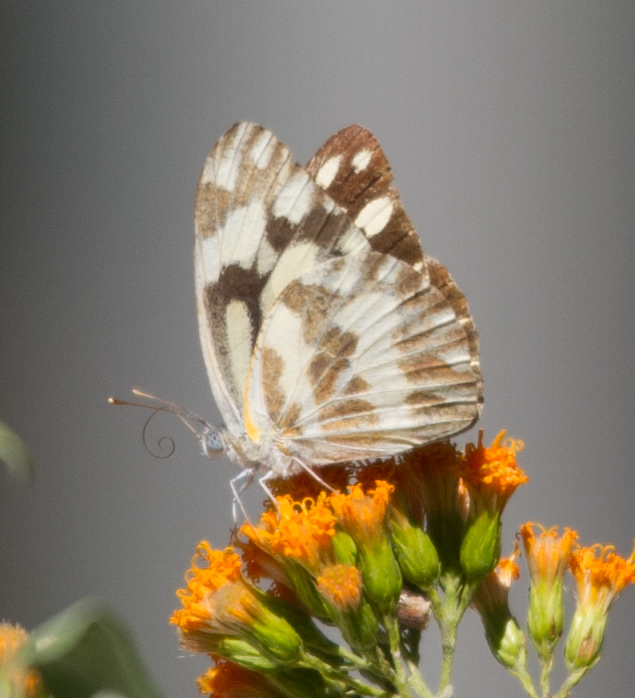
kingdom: Animalia
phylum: Arthropoda
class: Insecta
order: Lepidoptera
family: Pieridae
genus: Pinacopteryx
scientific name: Pinacopteryx eriphia
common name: Zebra white
